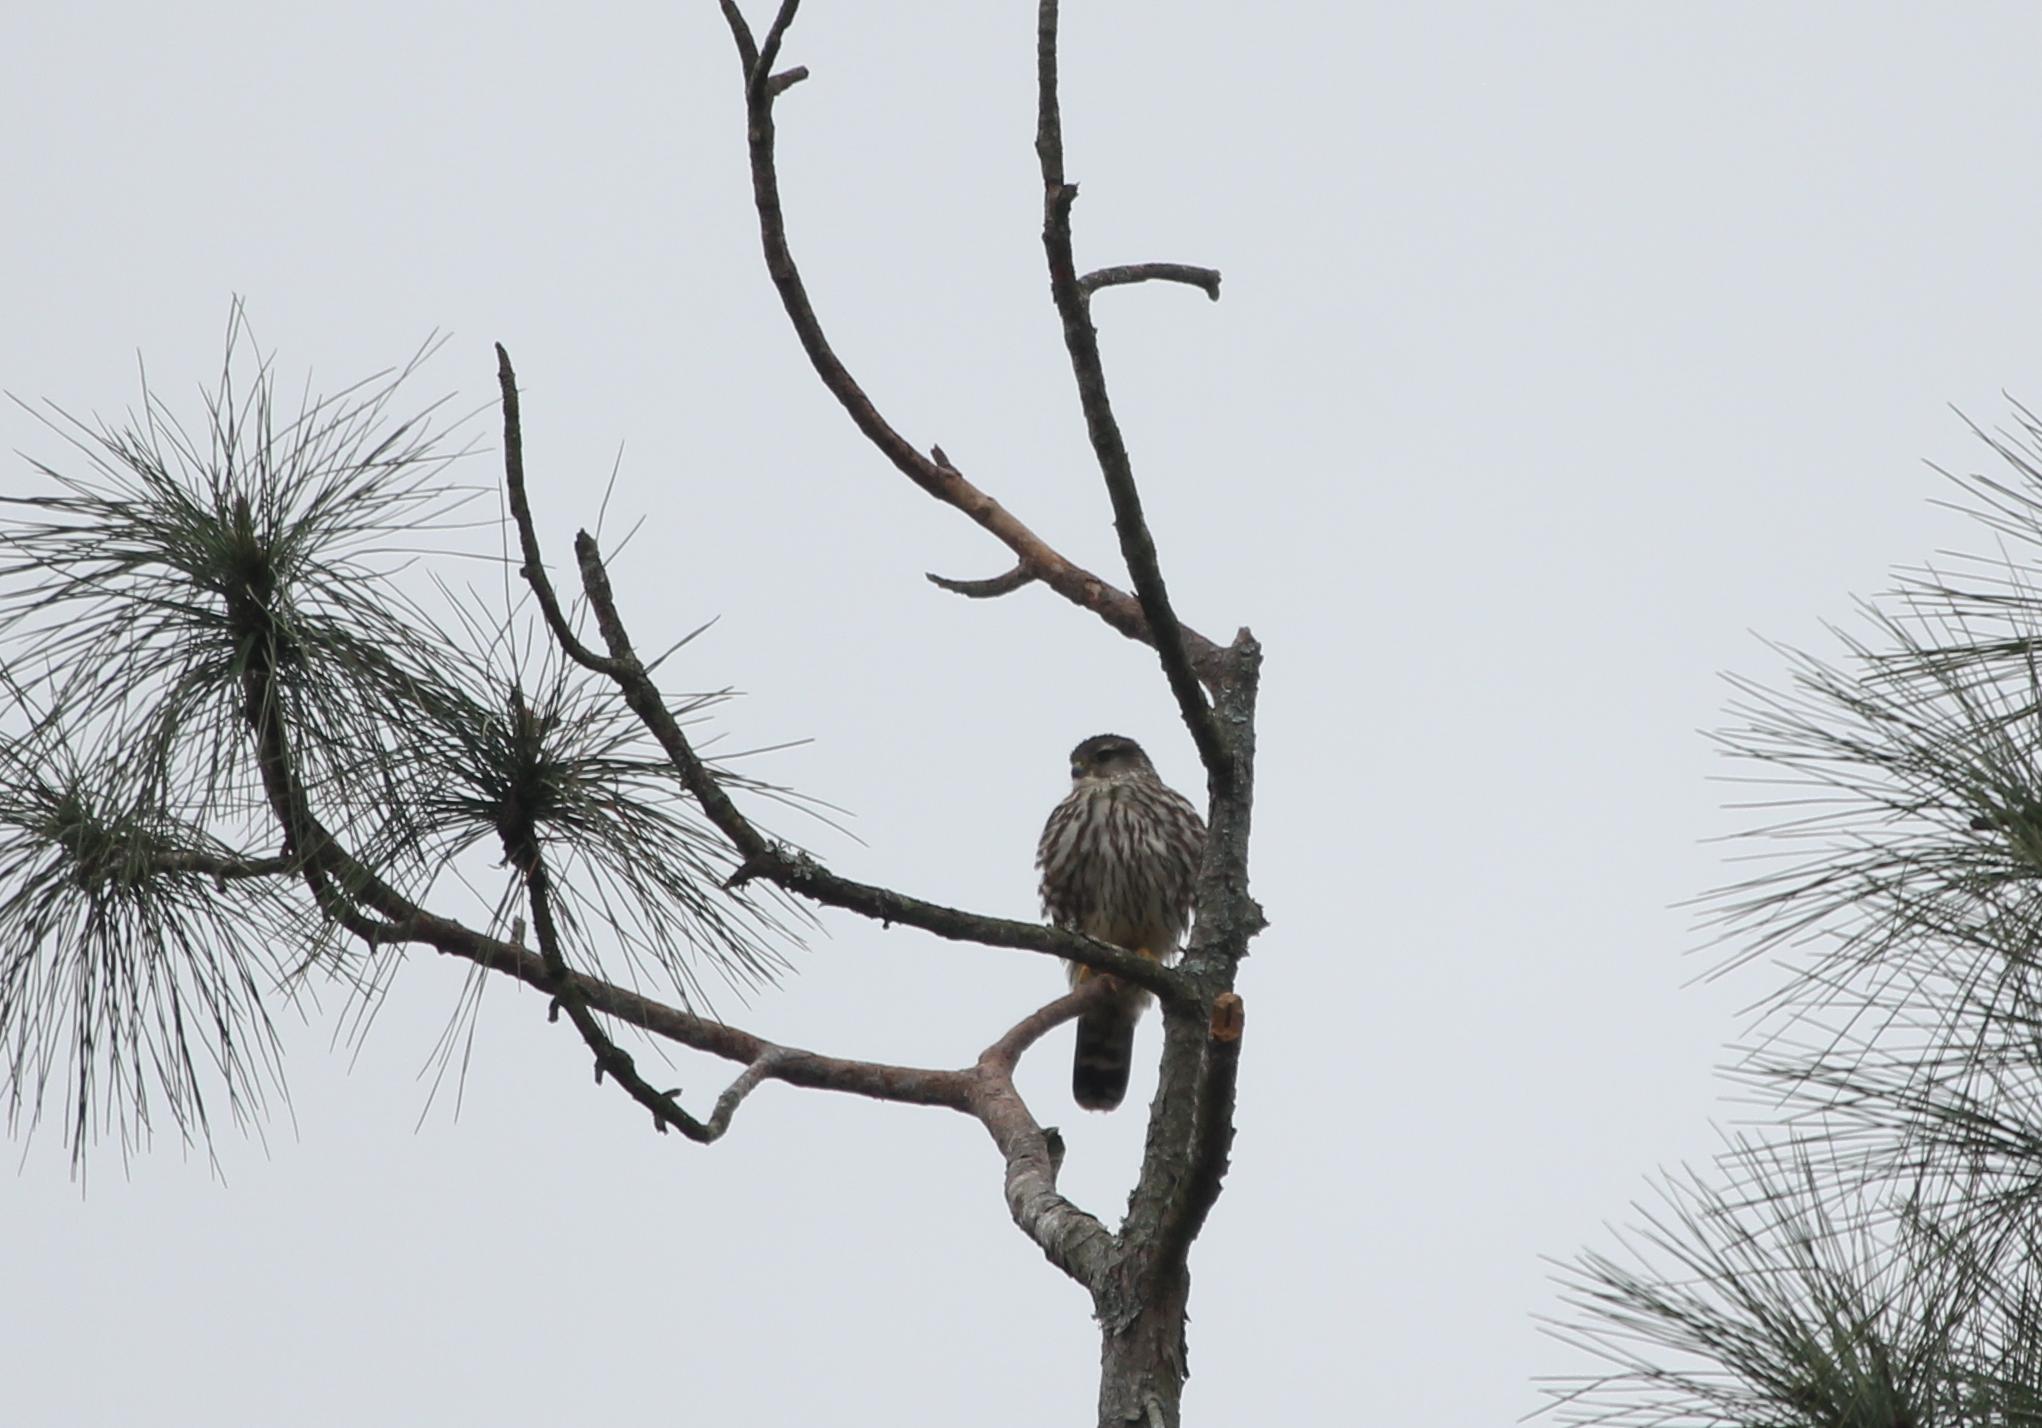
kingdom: Animalia
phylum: Chordata
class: Aves
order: Falconiformes
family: Falconidae
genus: Falco
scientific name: Falco columbarius
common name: Merlin
